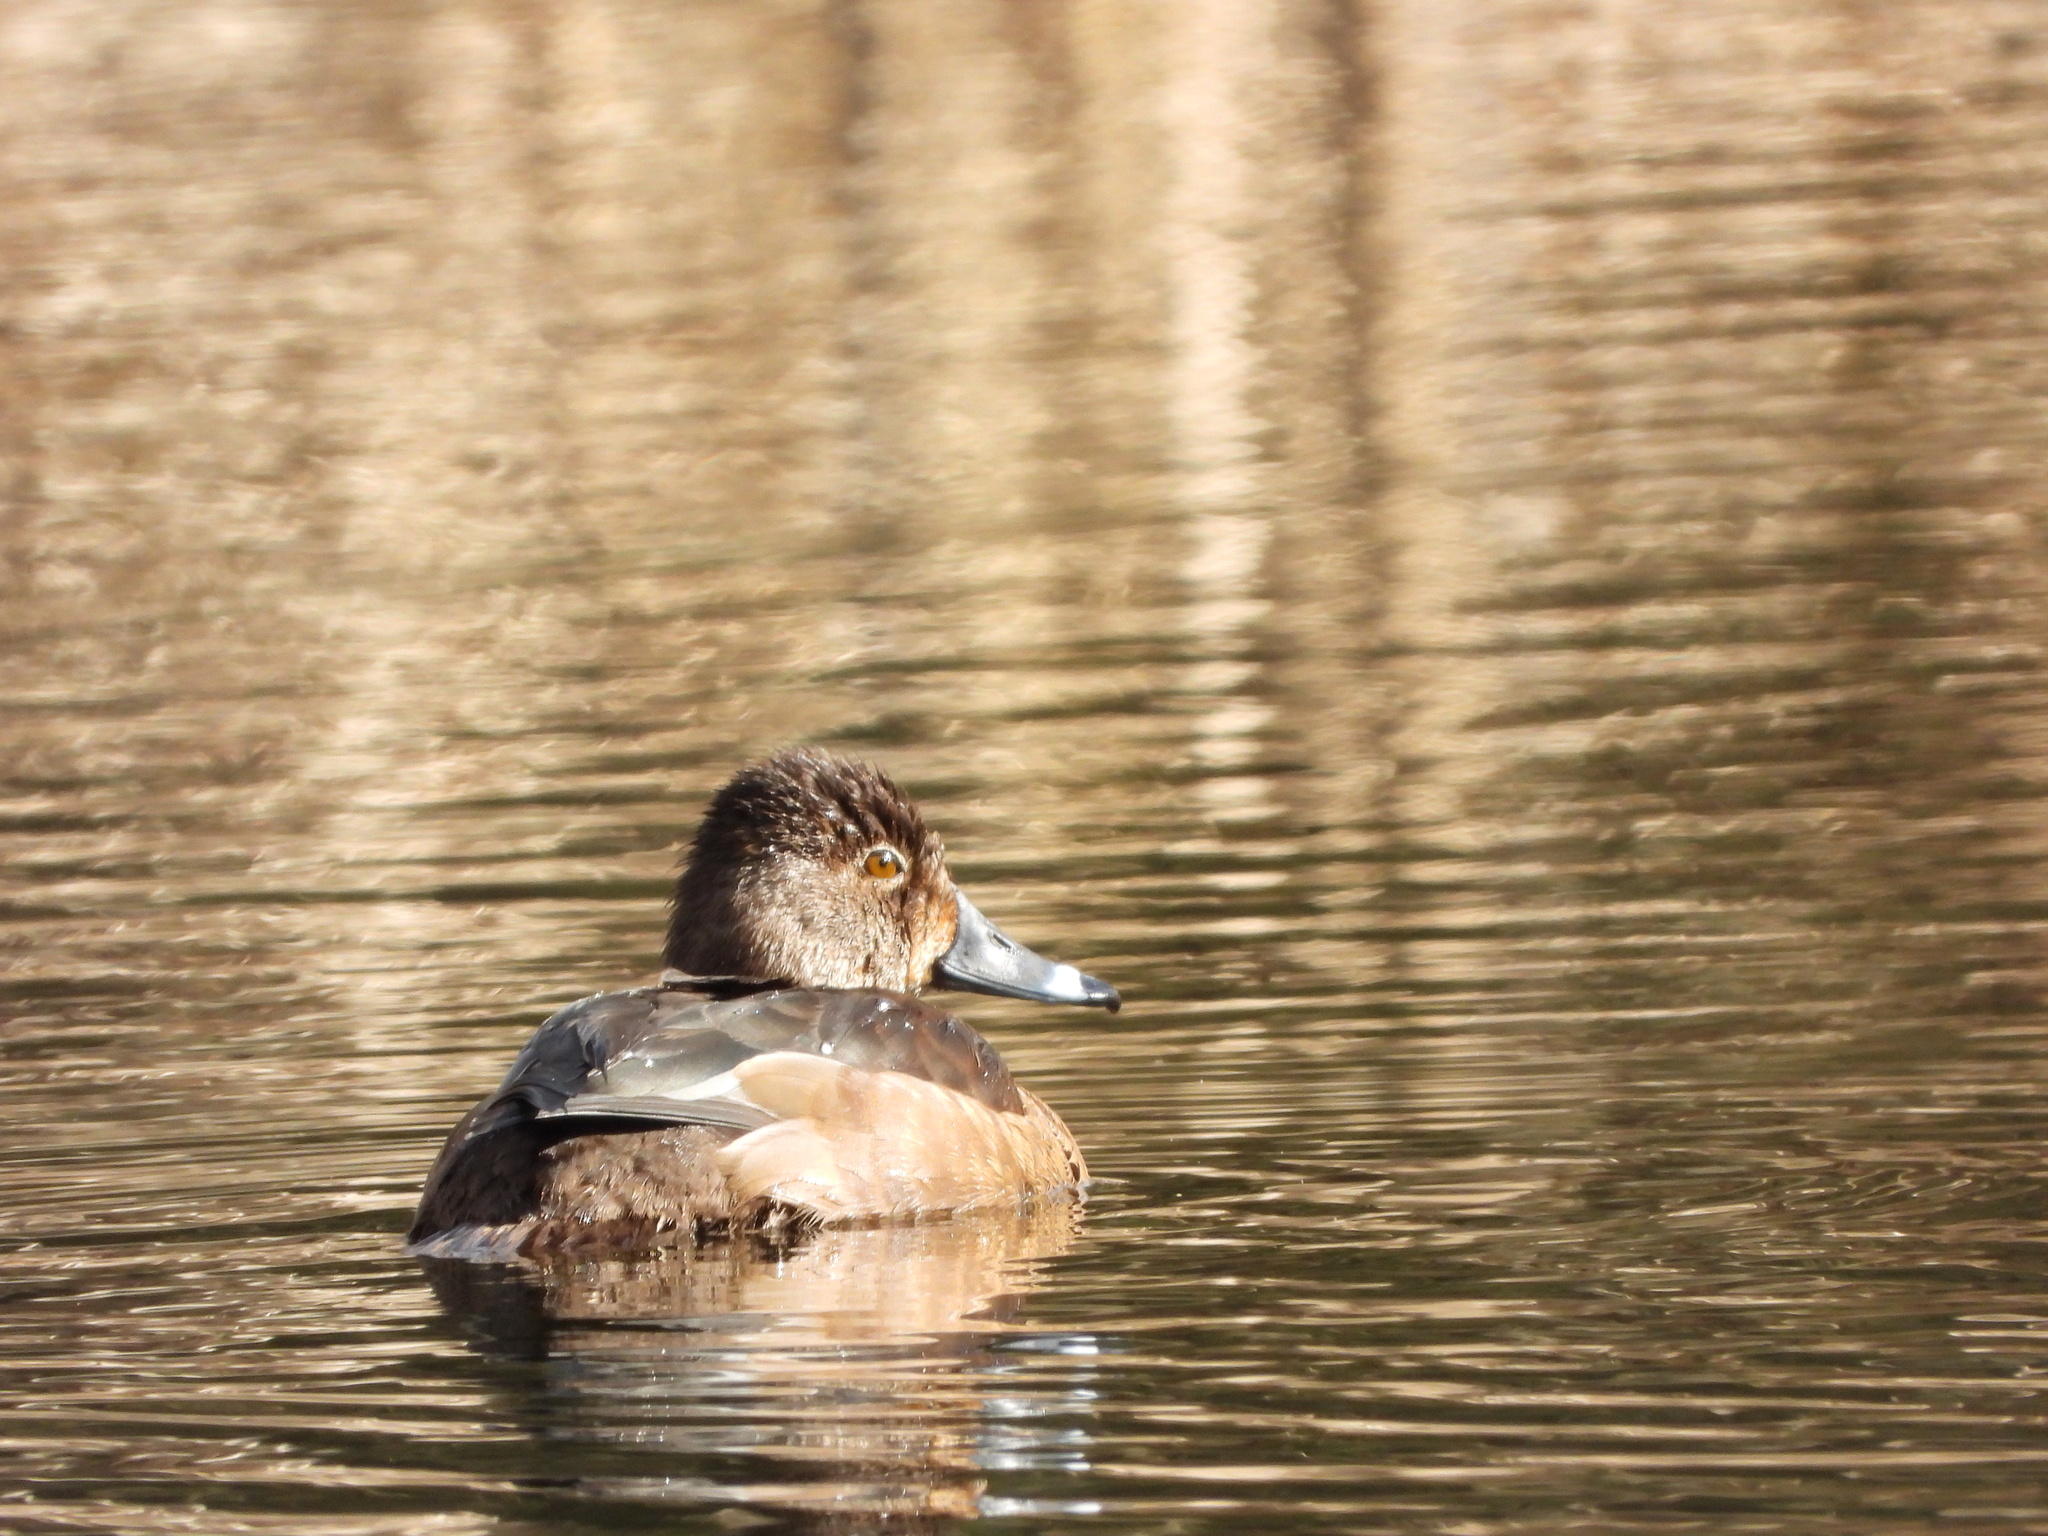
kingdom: Animalia
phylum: Chordata
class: Aves
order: Anseriformes
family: Anatidae
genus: Aythya
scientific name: Aythya collaris
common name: Ring-necked duck
